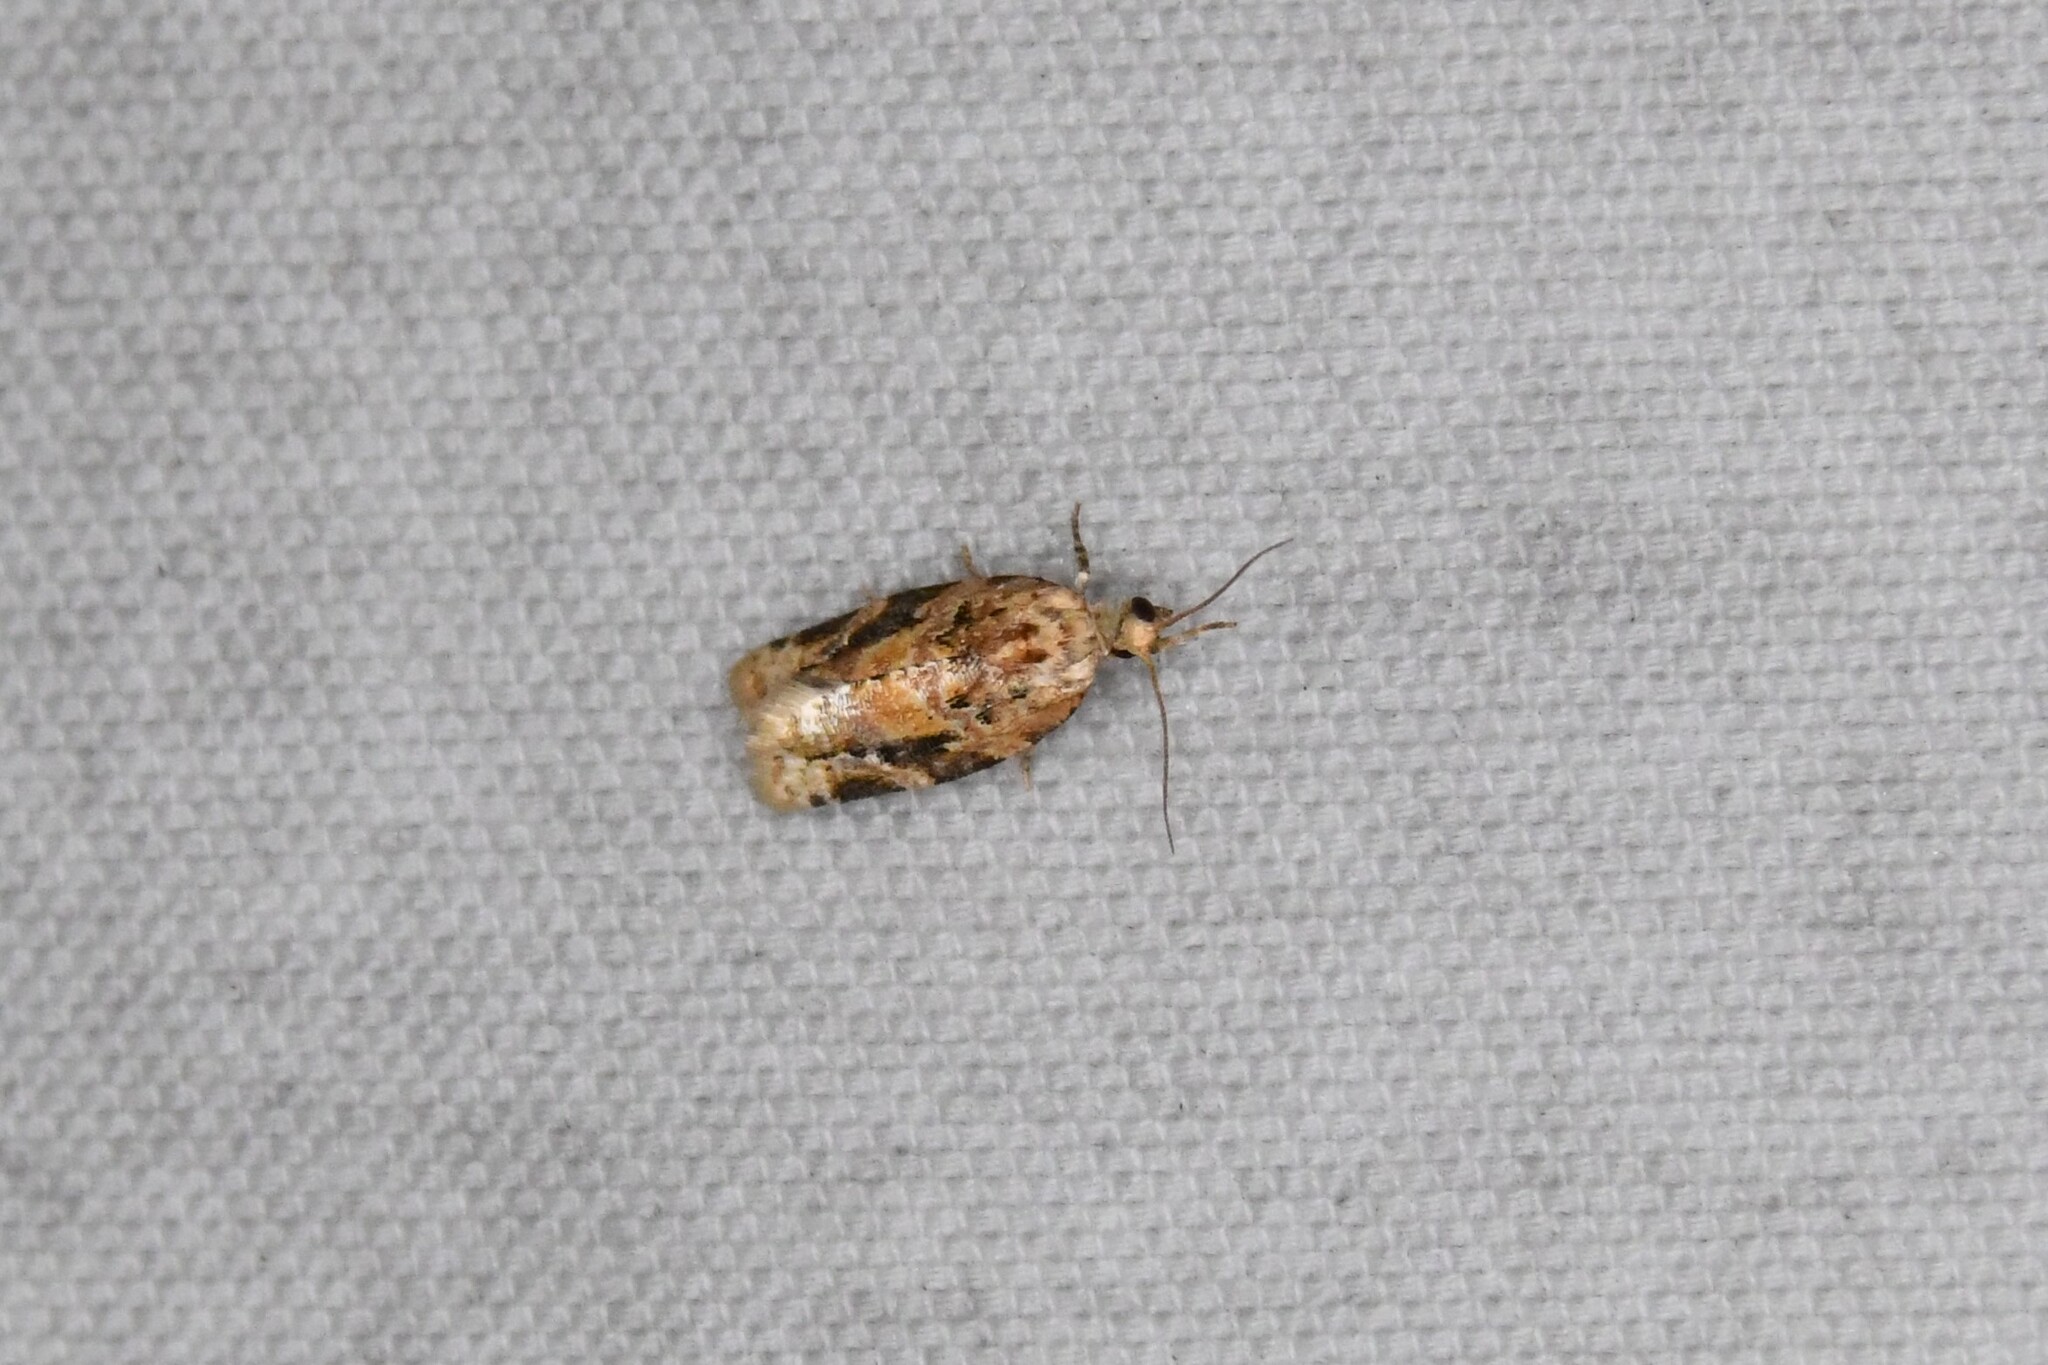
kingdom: Animalia
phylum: Arthropoda
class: Insecta
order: Lepidoptera
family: Tortricidae
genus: Argyrotaenia
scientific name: Argyrotaenia velutinana
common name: Red-banded leafroller moth
